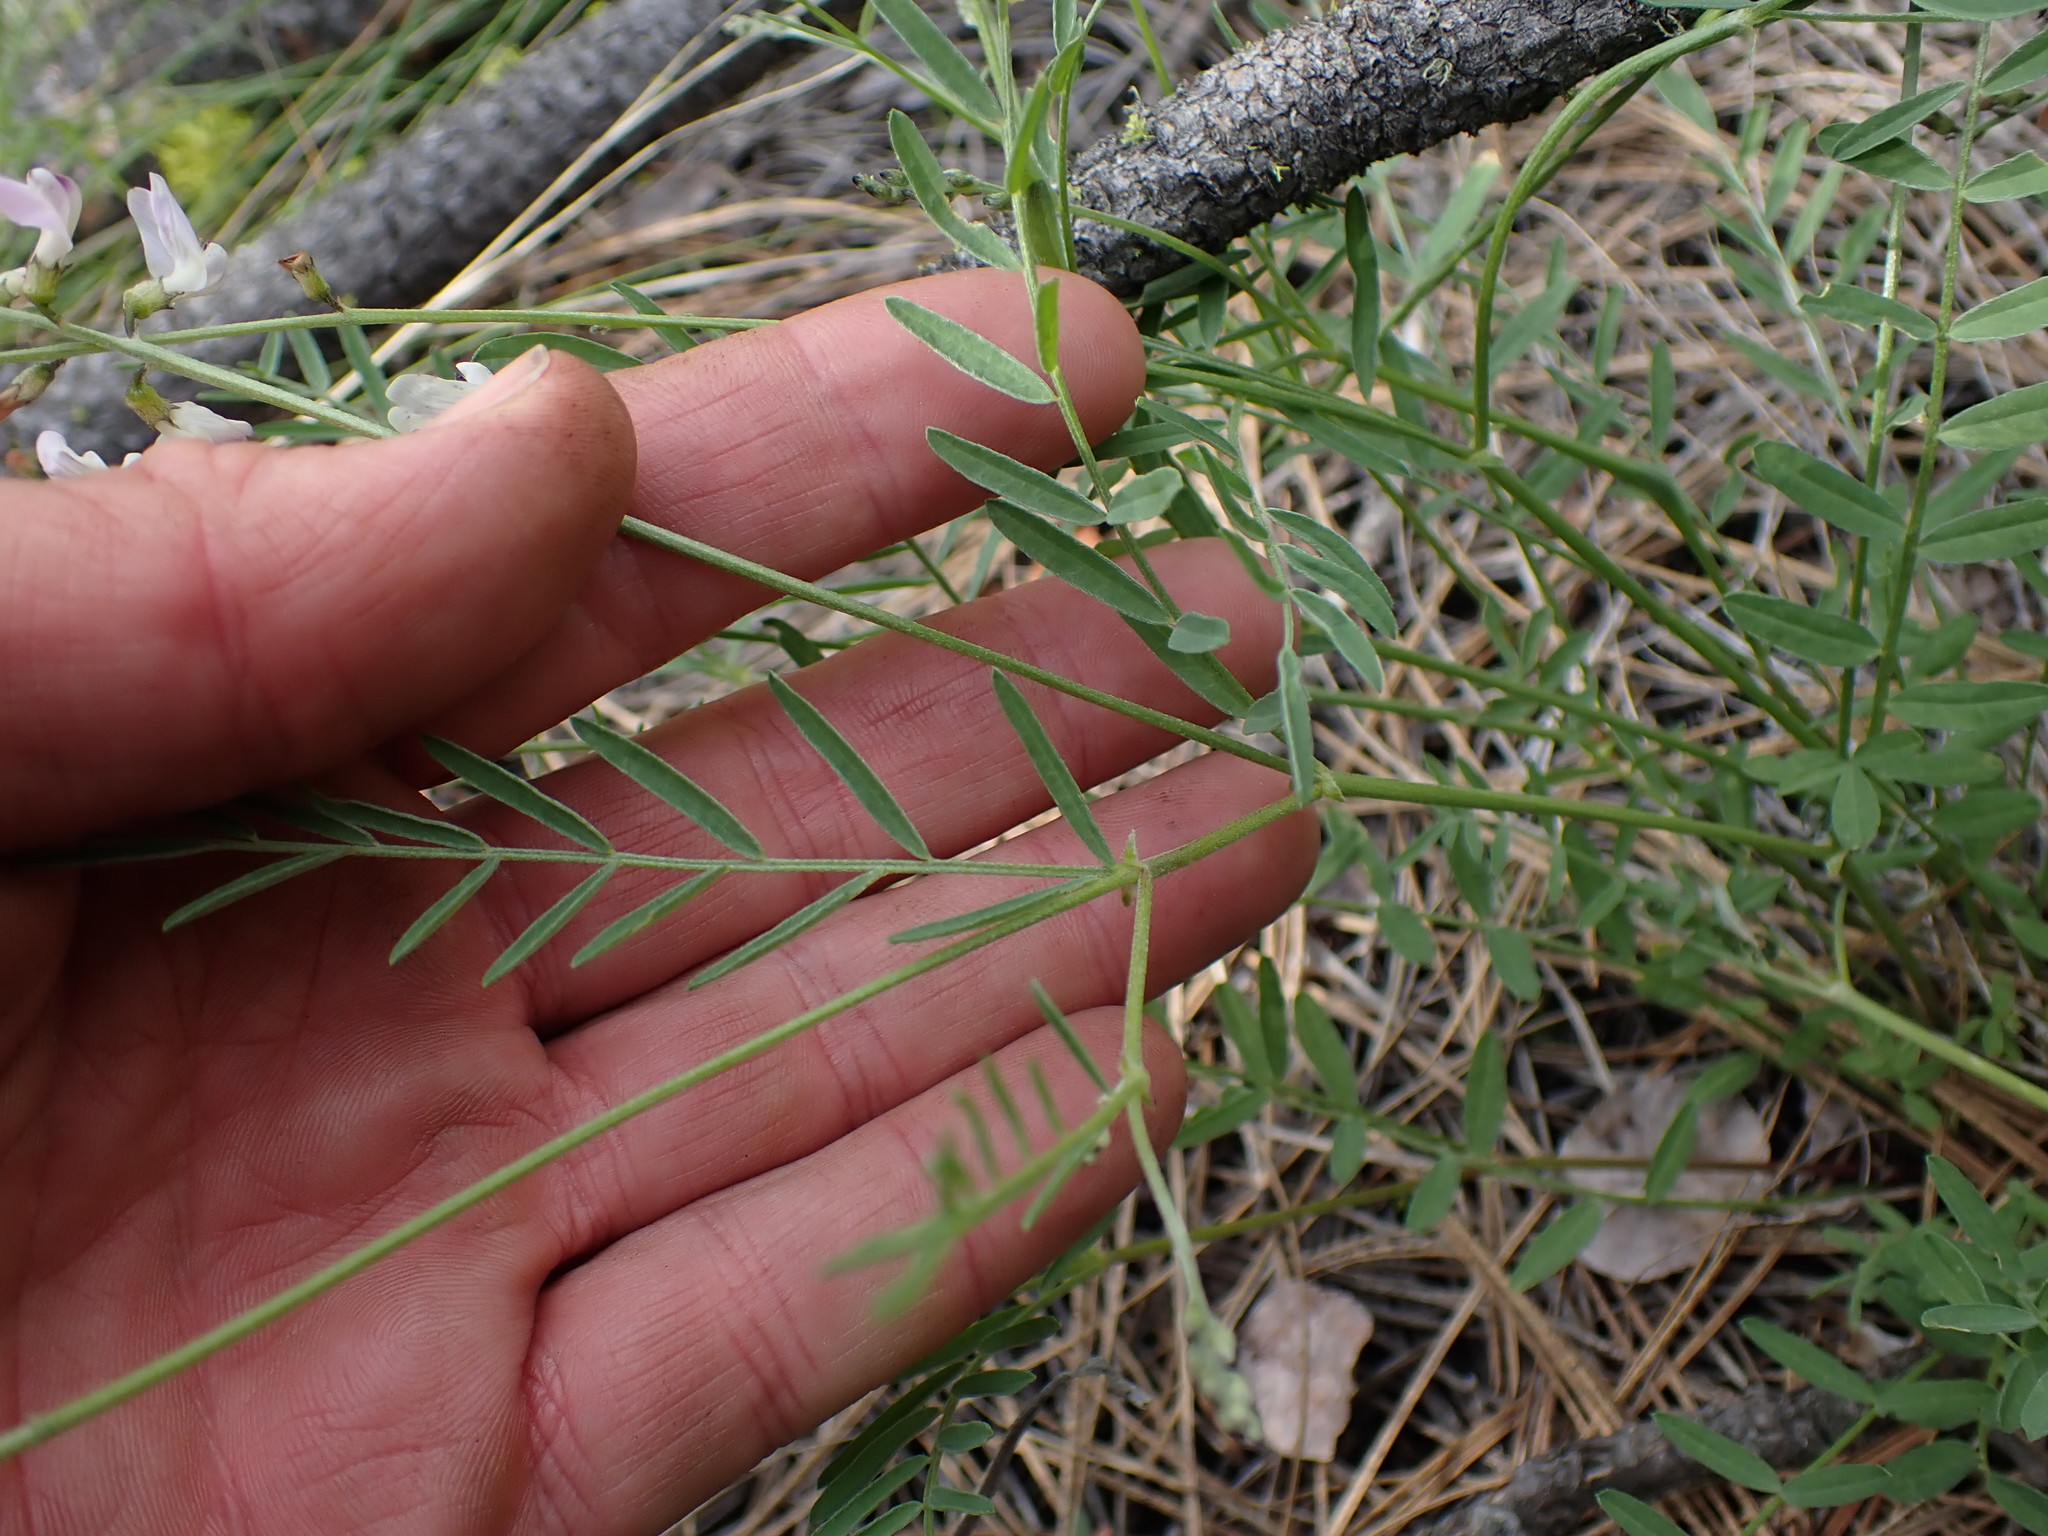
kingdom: Plantae
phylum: Tracheophyta
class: Magnoliopsida
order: Fabales
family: Fabaceae
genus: Astragalus
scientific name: Astragalus miser
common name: Timber milkvetch
